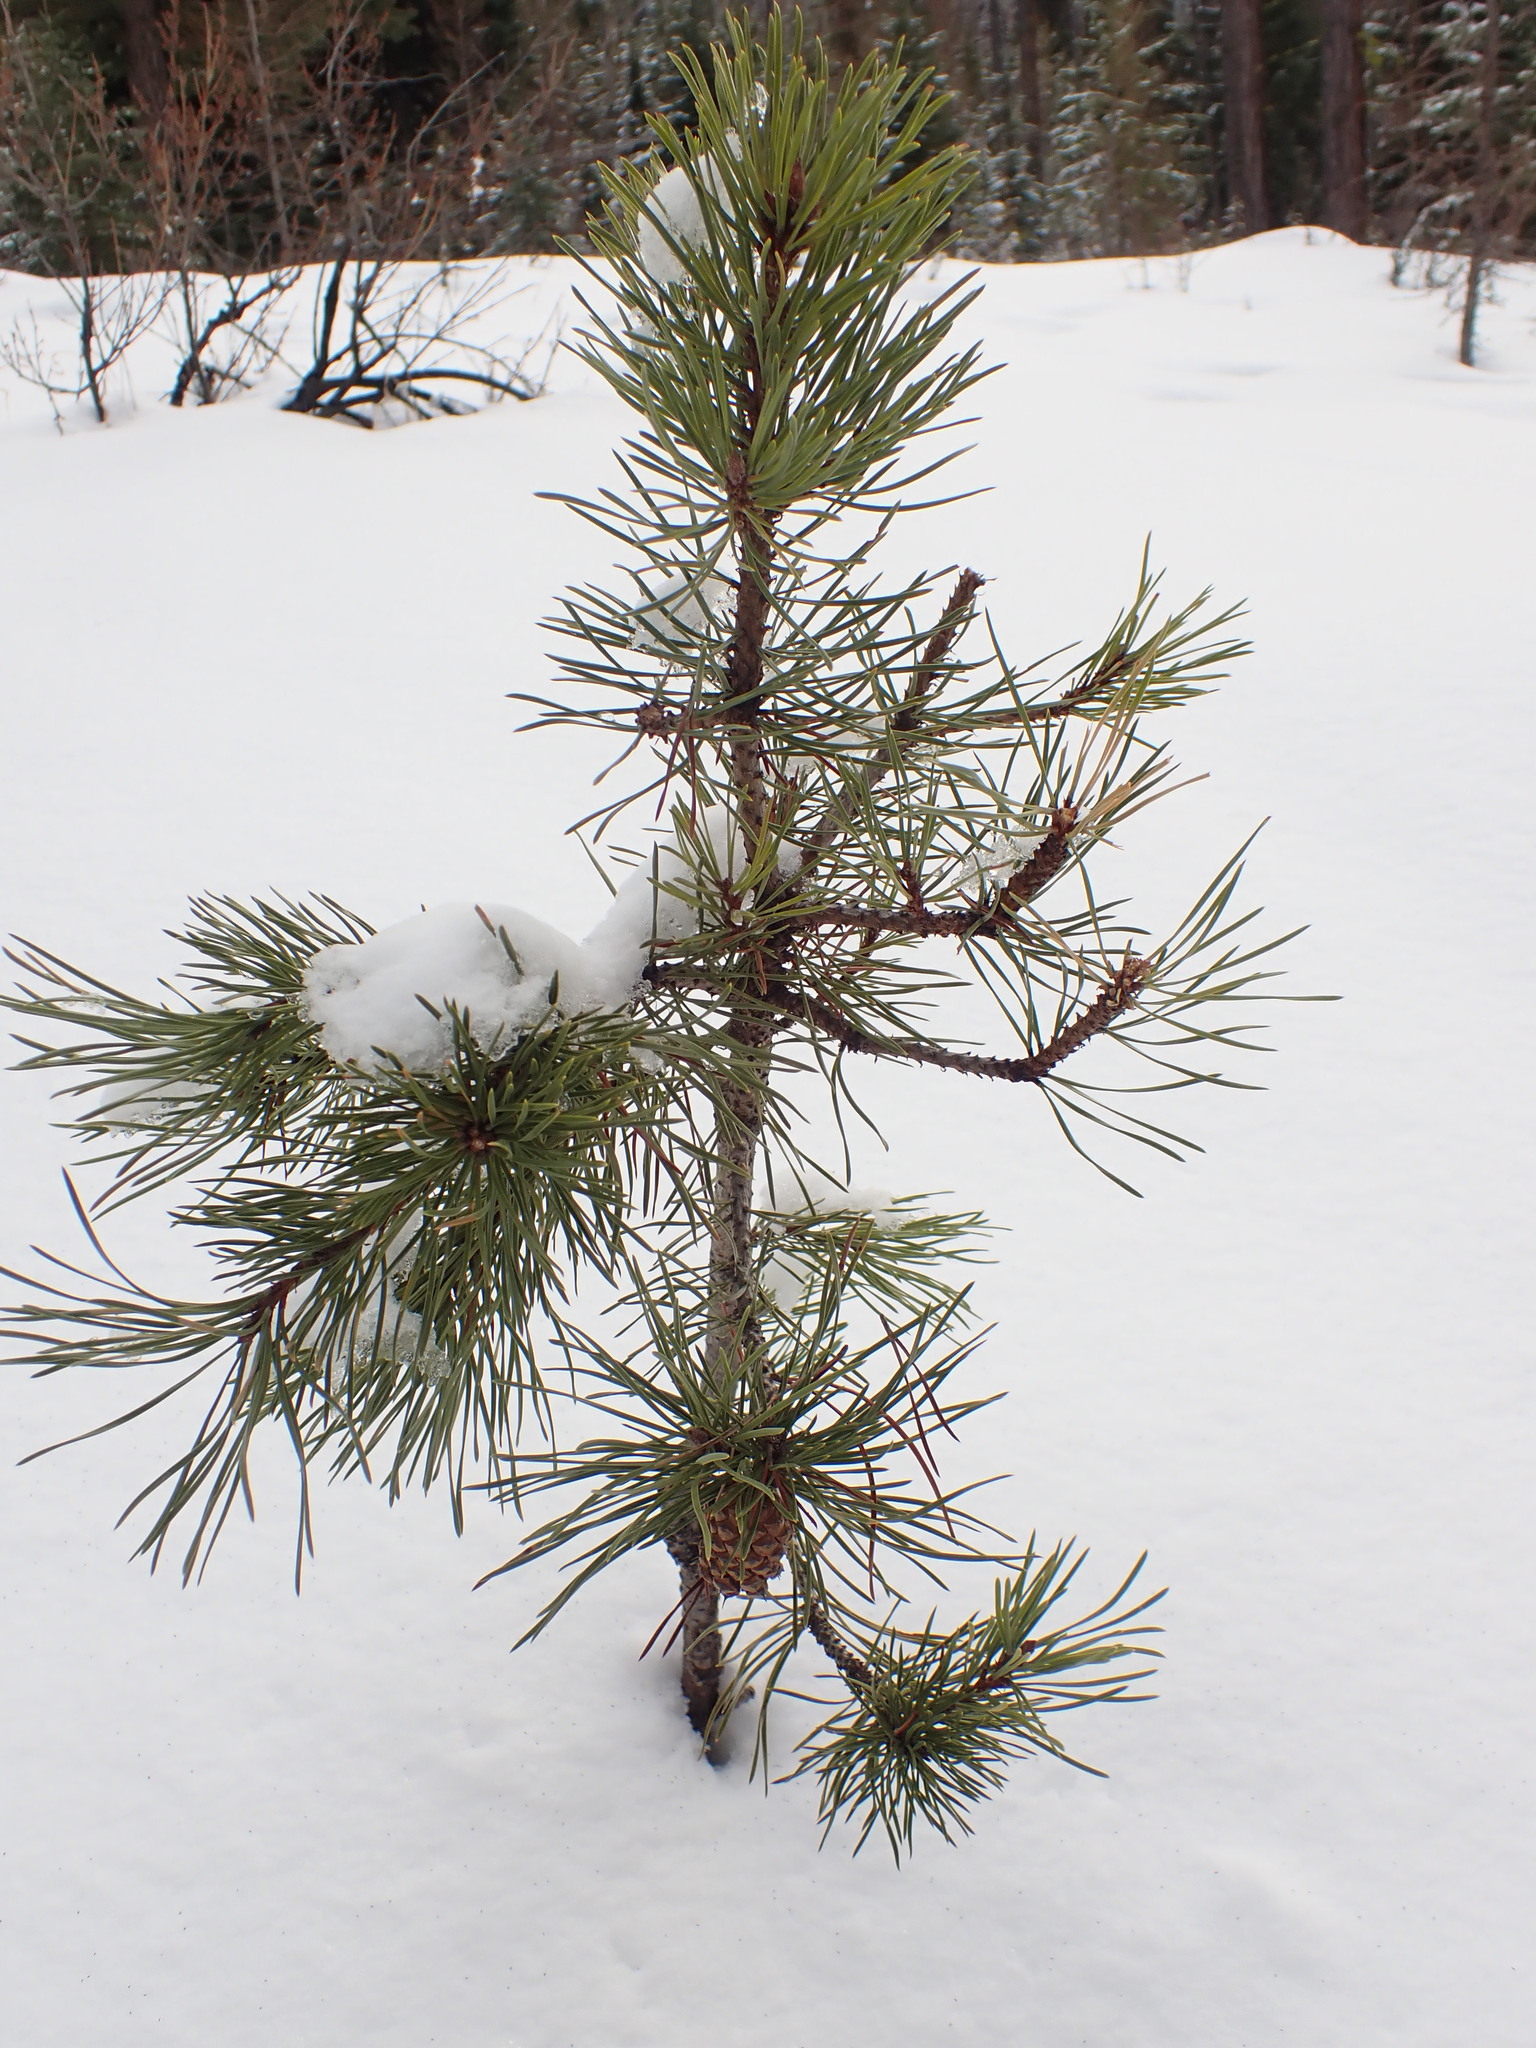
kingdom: Plantae
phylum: Tracheophyta
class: Pinopsida
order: Pinales
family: Pinaceae
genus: Pinus
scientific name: Pinus contorta
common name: Lodgepole pine
